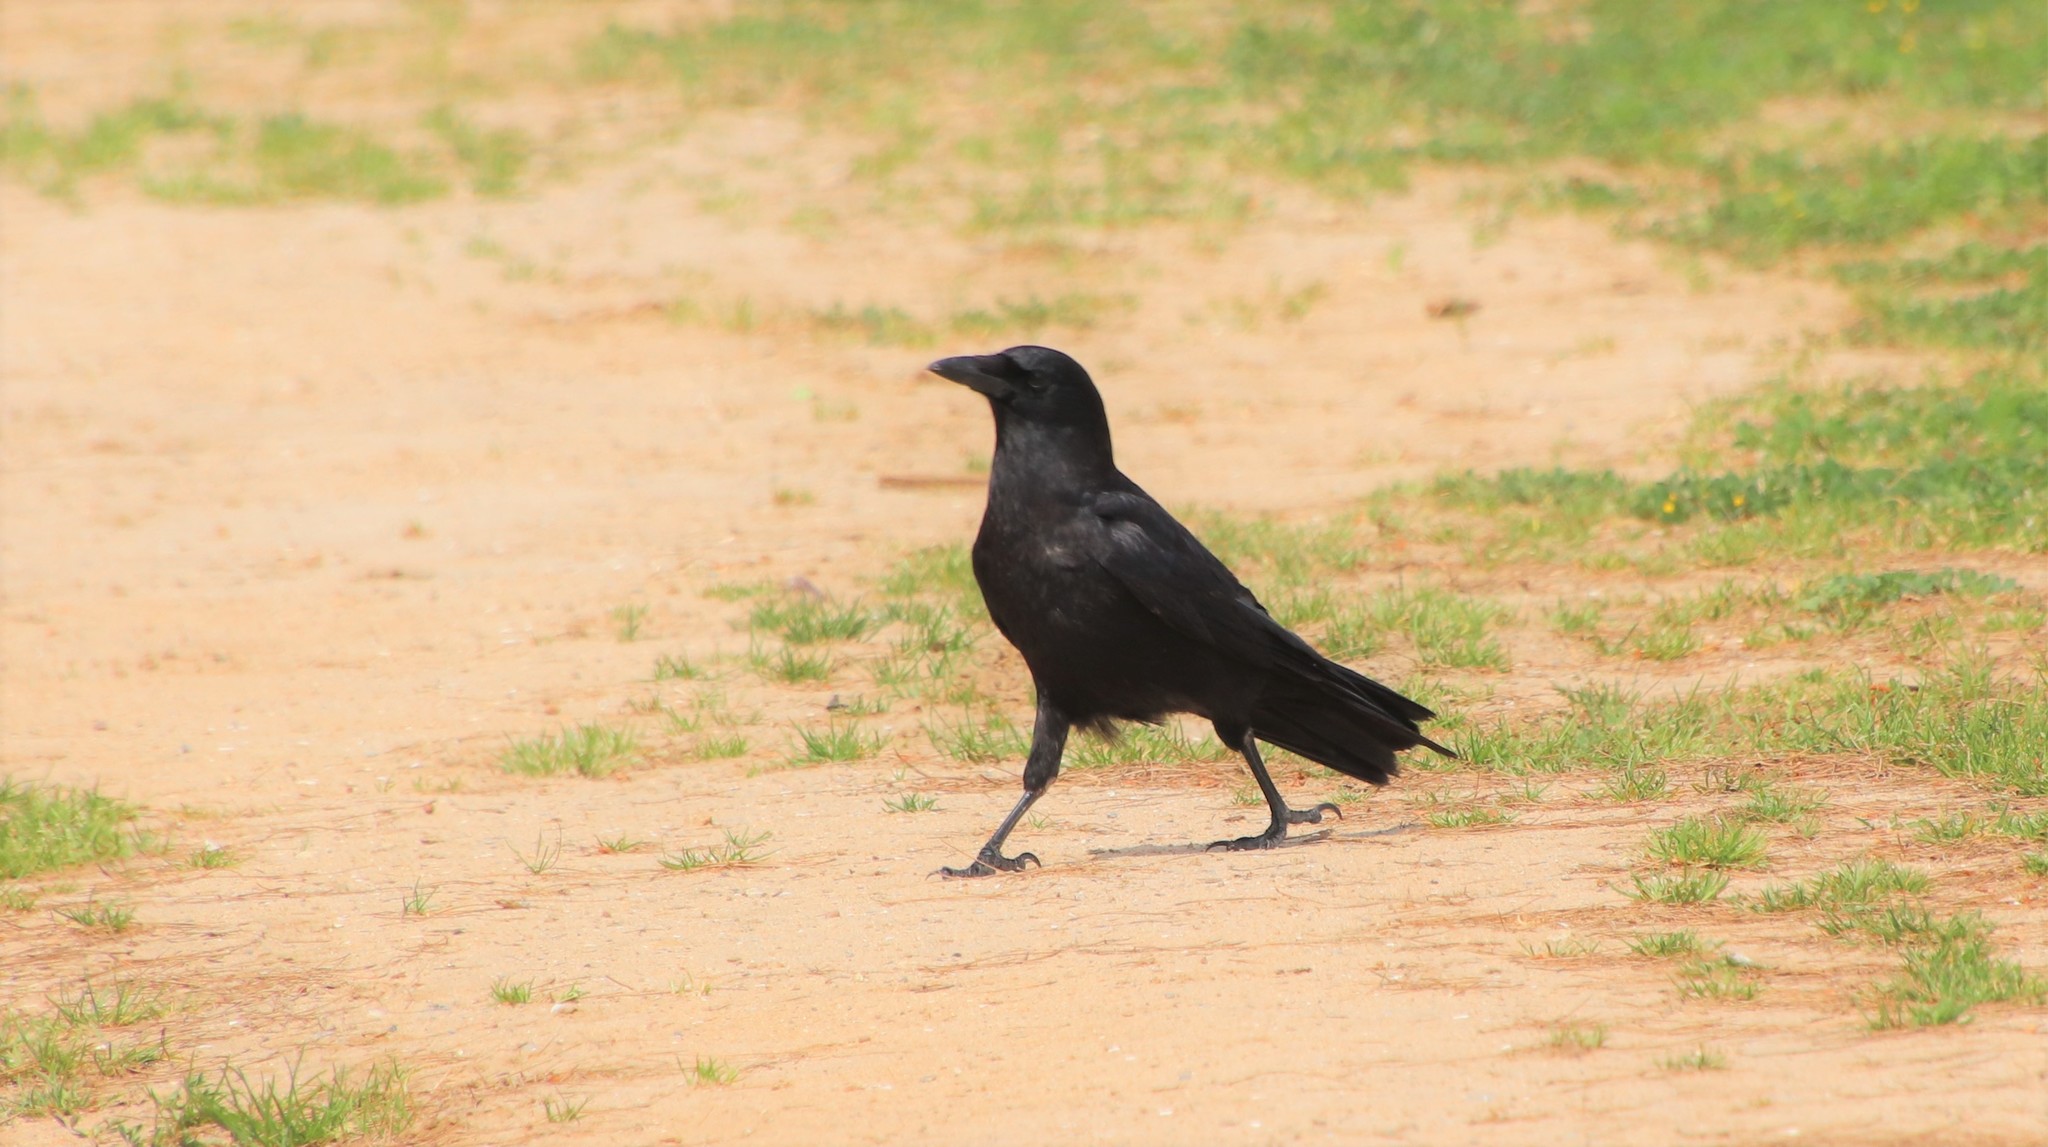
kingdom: Animalia
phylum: Chordata
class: Aves
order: Passeriformes
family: Corvidae
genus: Corvus
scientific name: Corvus brachyrhynchos
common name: American crow
